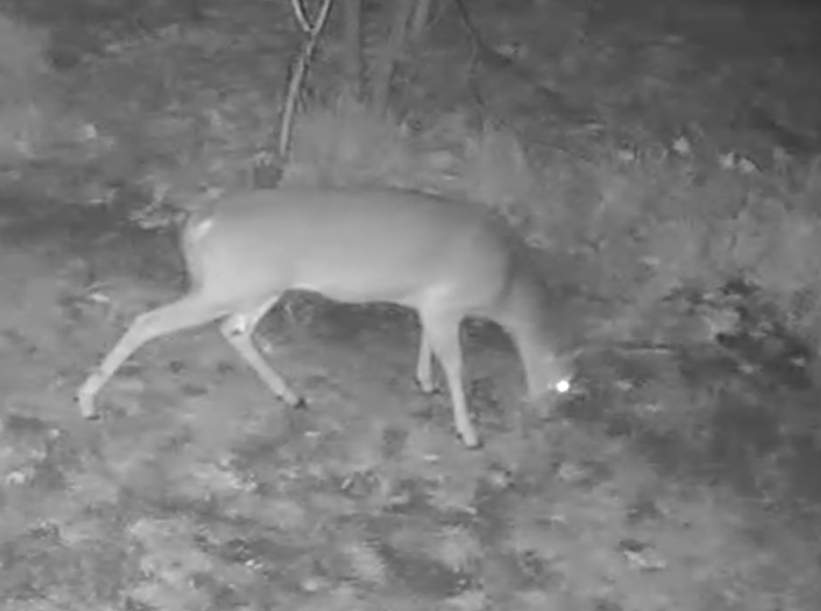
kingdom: Animalia
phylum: Chordata
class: Mammalia
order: Artiodactyla
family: Cervidae
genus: Odocoileus
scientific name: Odocoileus virginianus
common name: White-tailed deer
